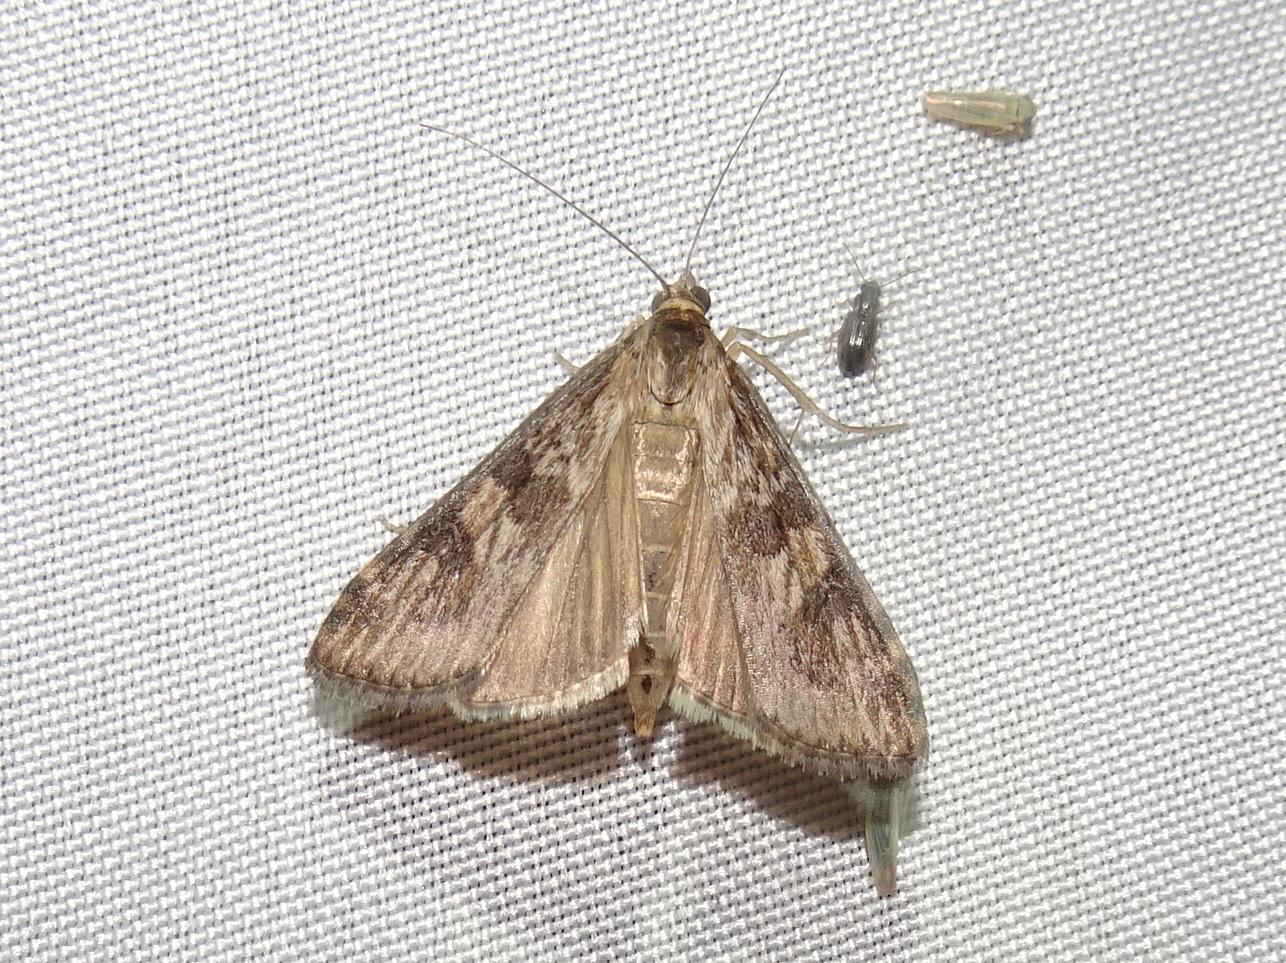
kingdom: Animalia
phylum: Arthropoda
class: Insecta
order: Lepidoptera
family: Crambidae
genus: Nomophila
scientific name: Nomophila nearctica
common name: American rush veneer
